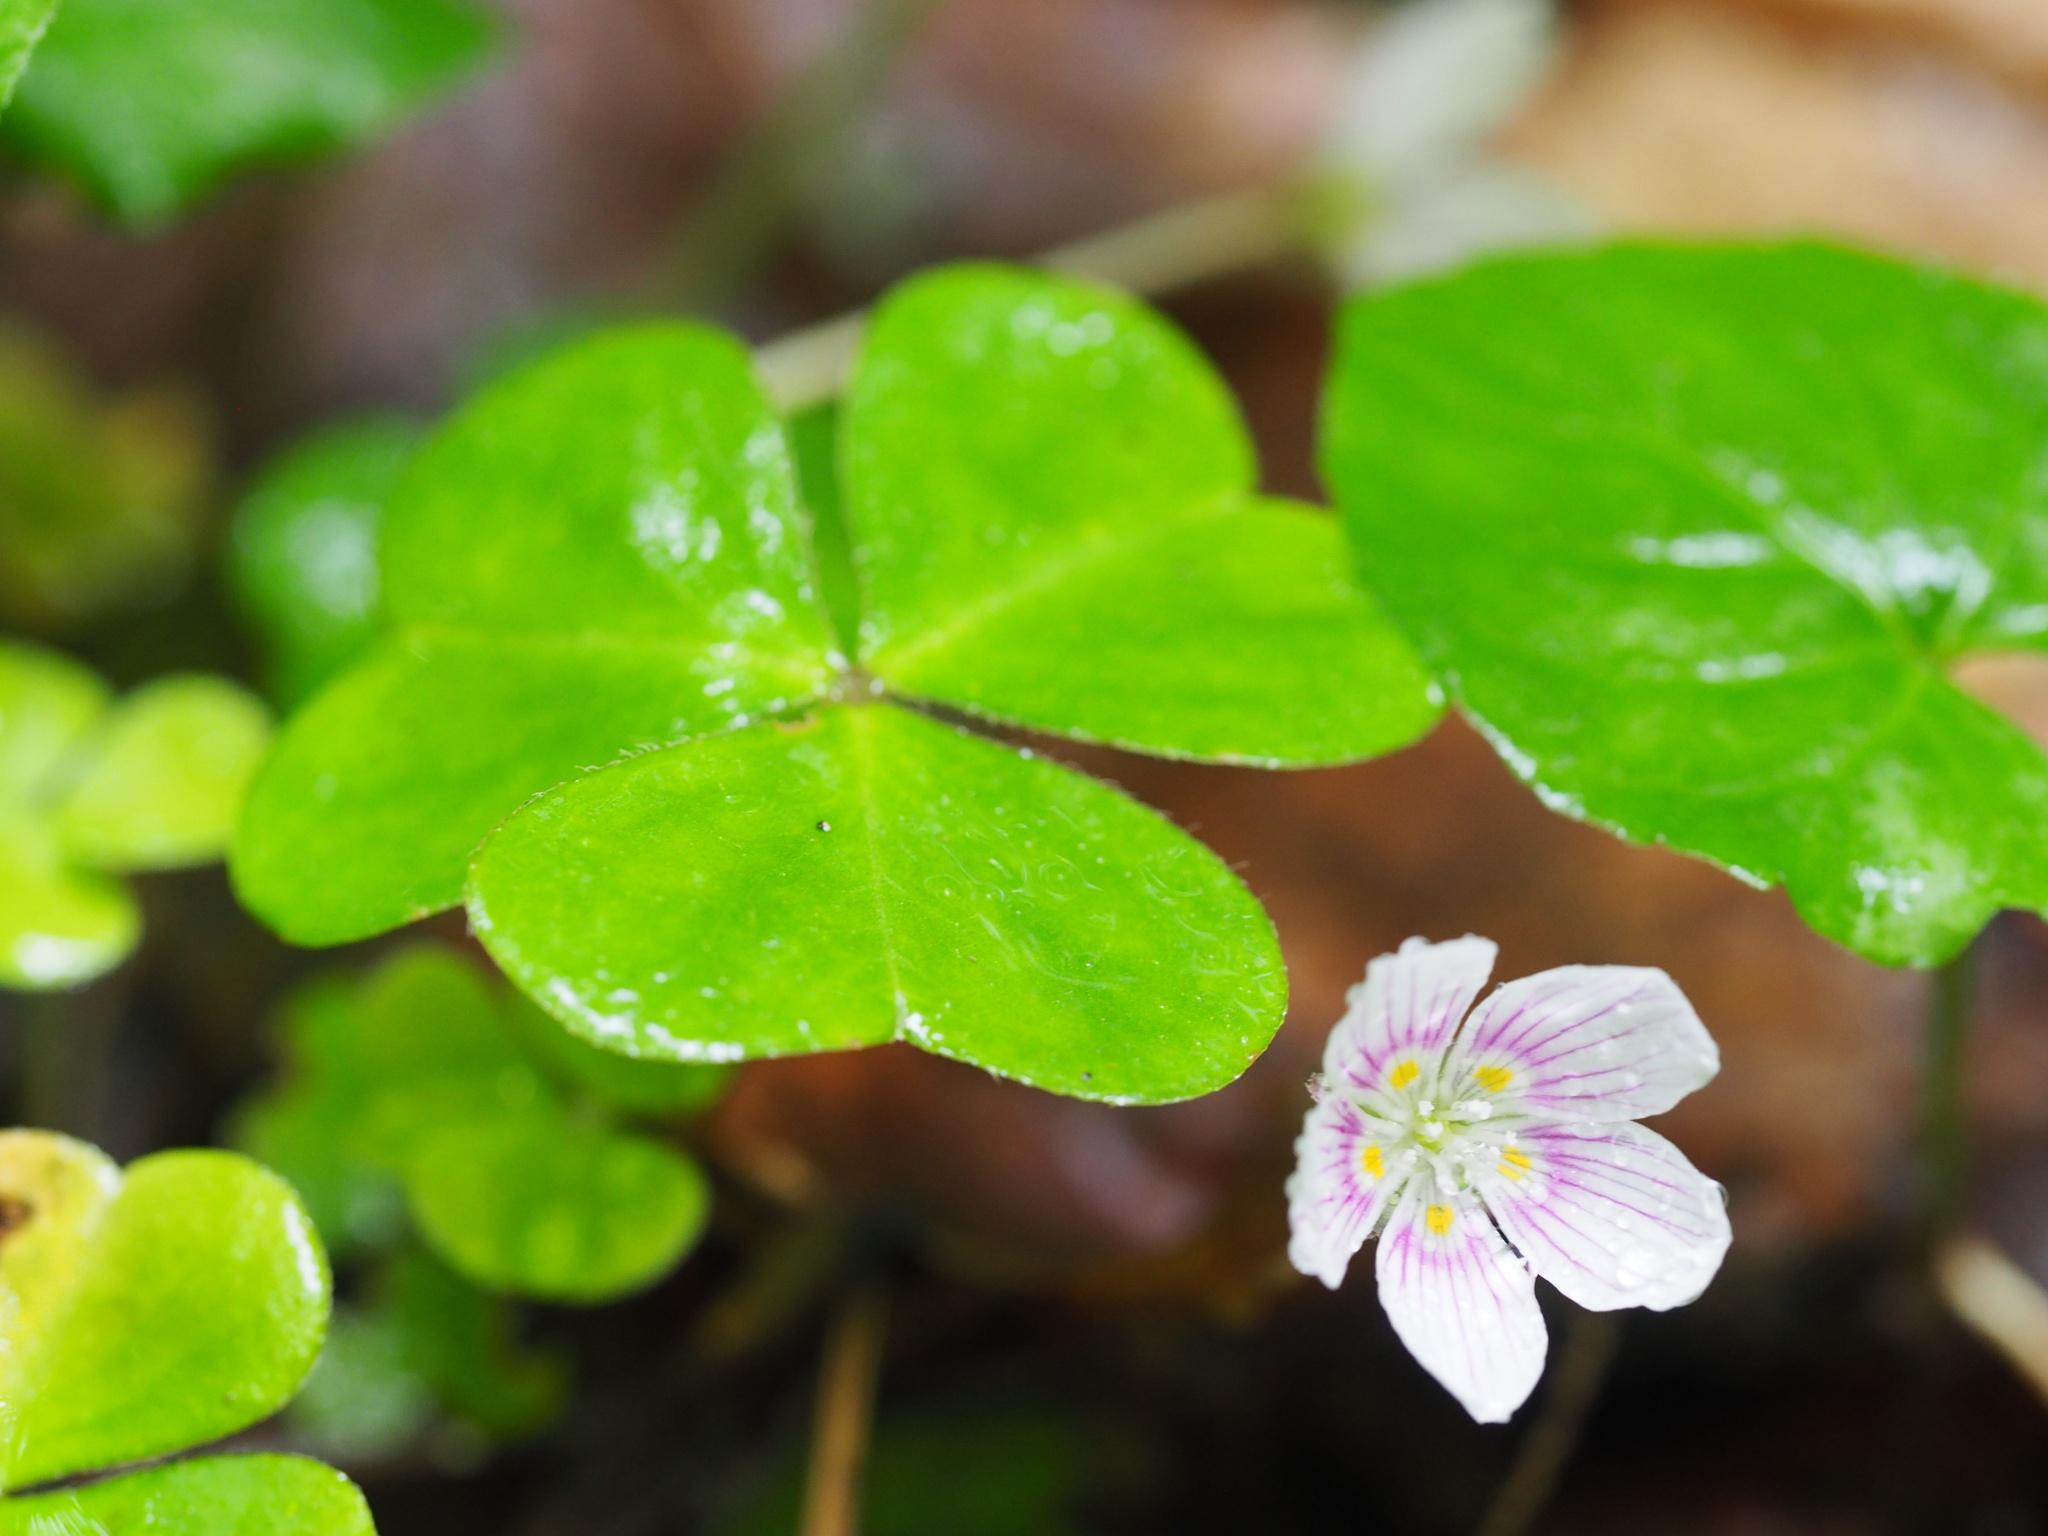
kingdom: Plantae
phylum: Tracheophyta
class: Magnoliopsida
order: Oxalidales
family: Oxalidaceae
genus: Oxalis
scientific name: Oxalis montana
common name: American wood-sorrel
